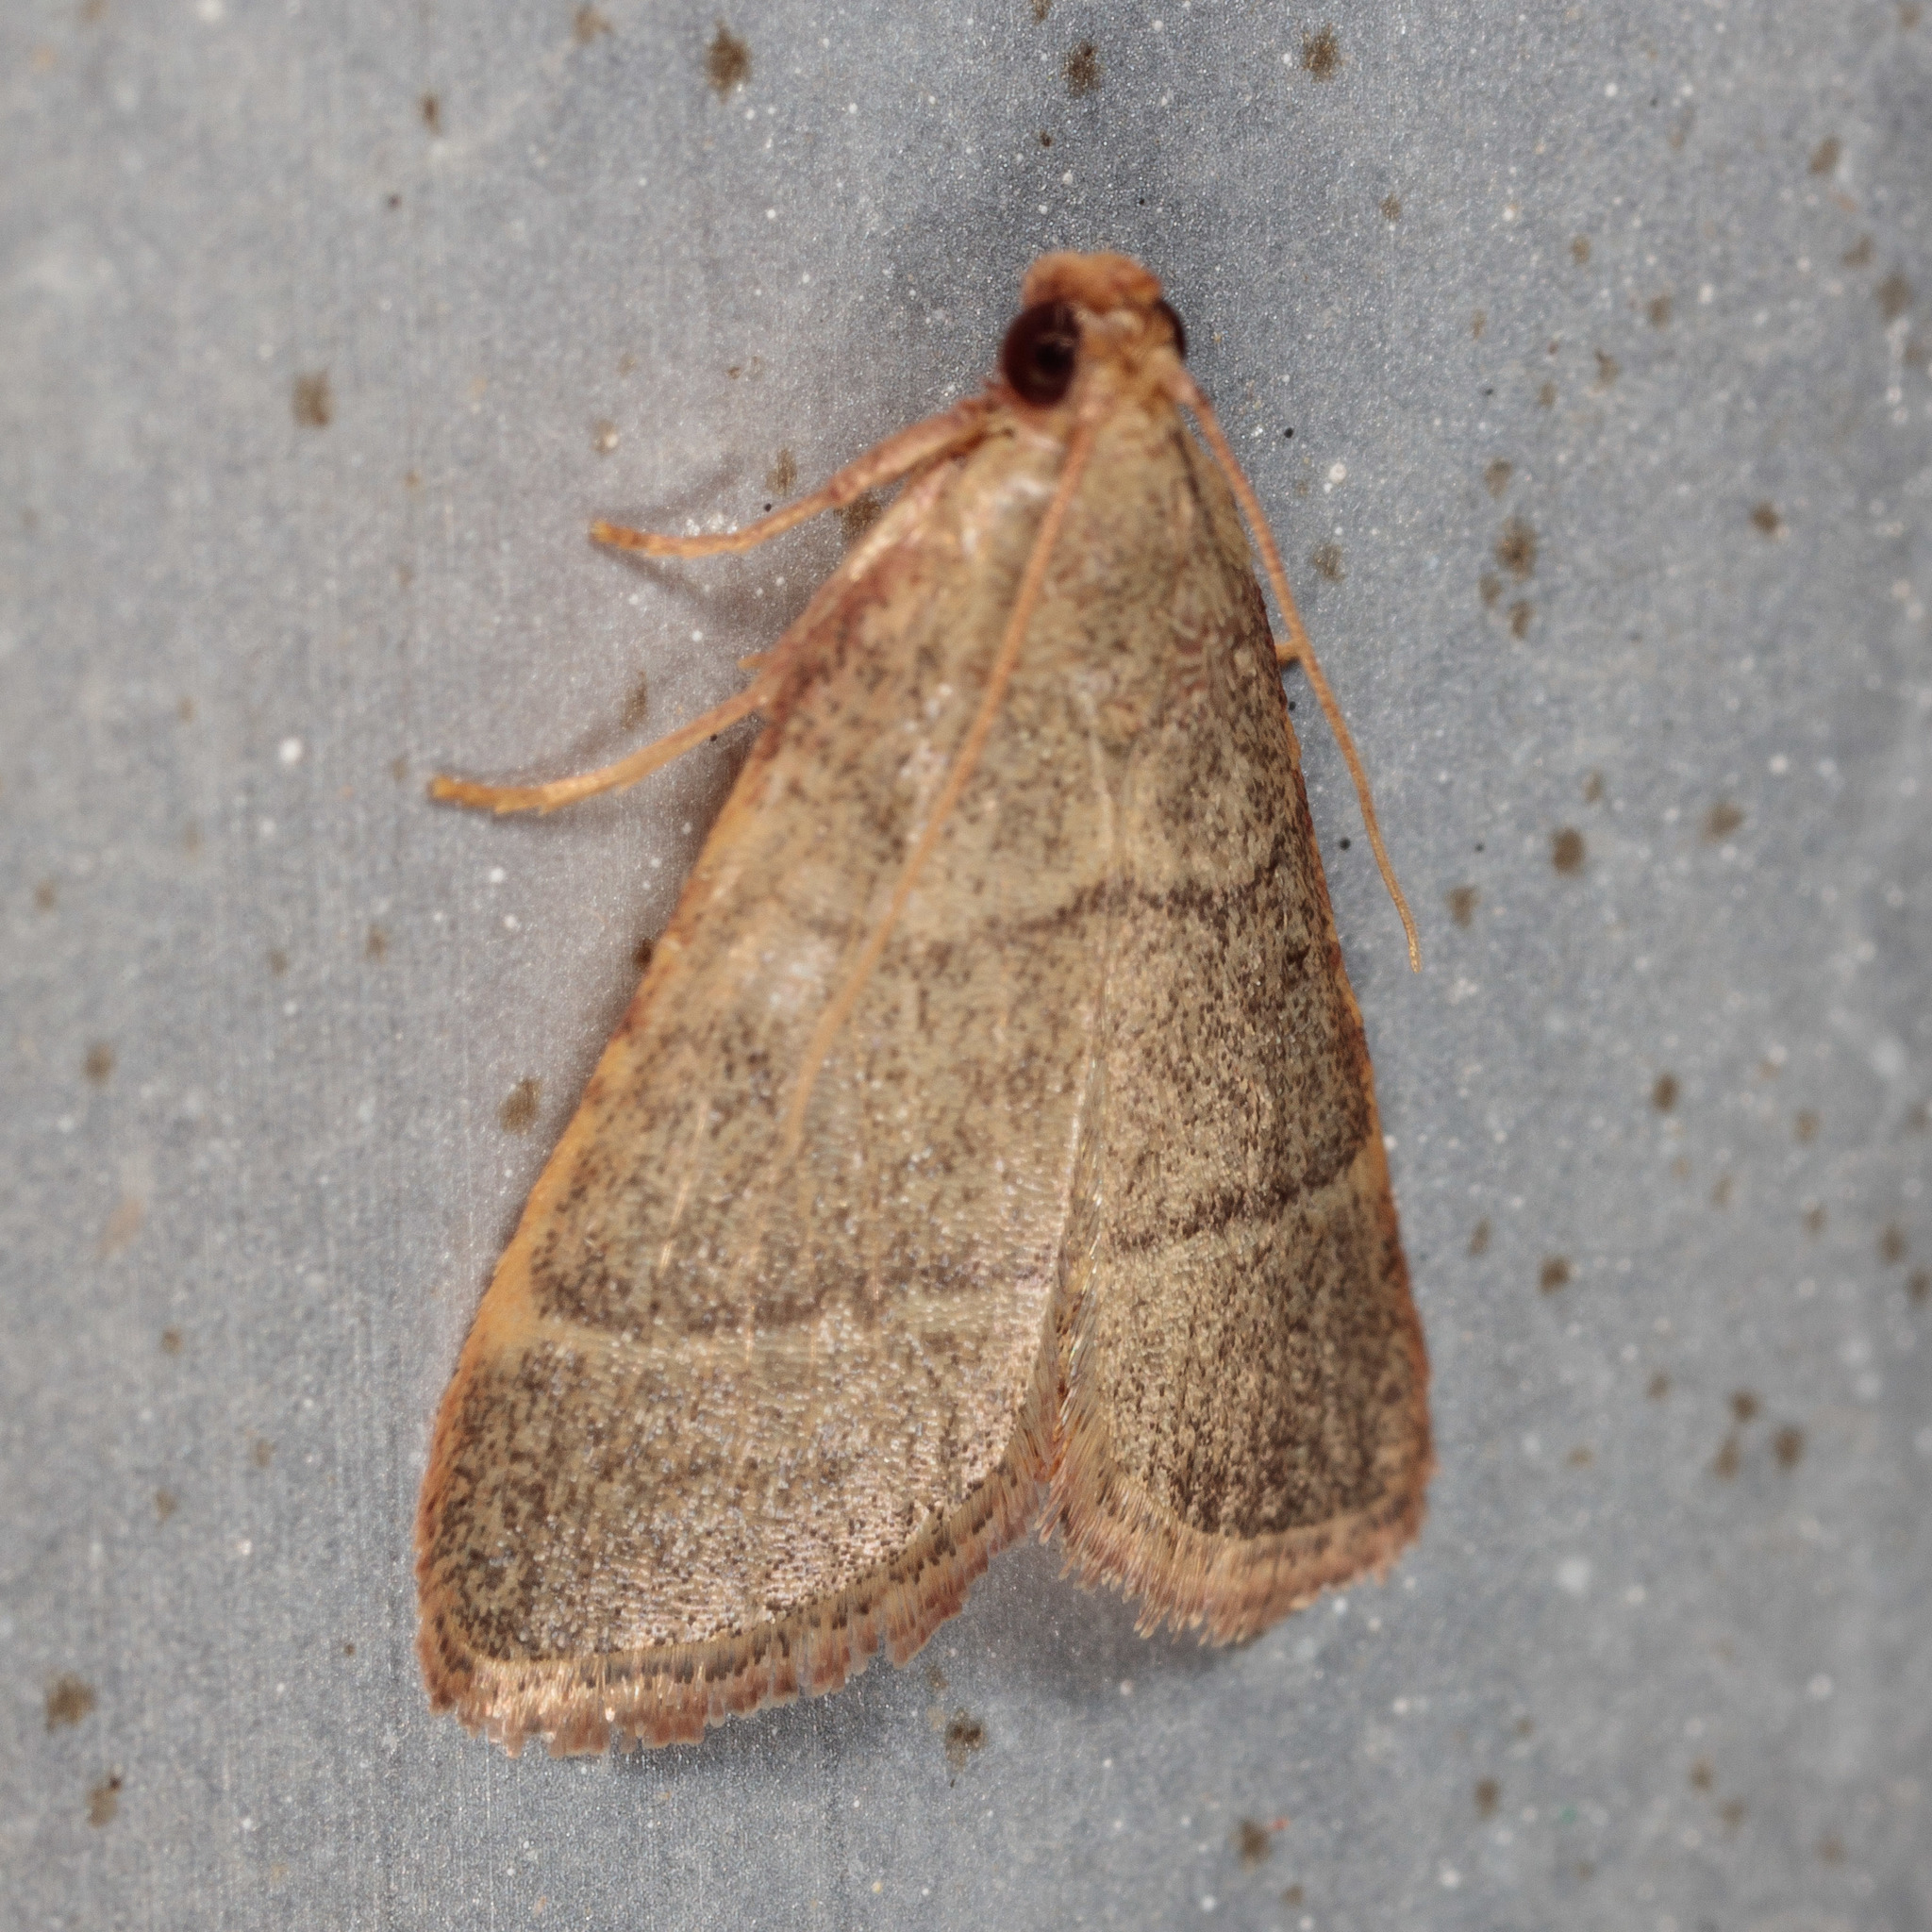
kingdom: Animalia
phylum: Arthropoda
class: Insecta
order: Lepidoptera
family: Pyralidae
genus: Hypsopygia
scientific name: Hypsopygia nostralis
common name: Southern hayworm moth
